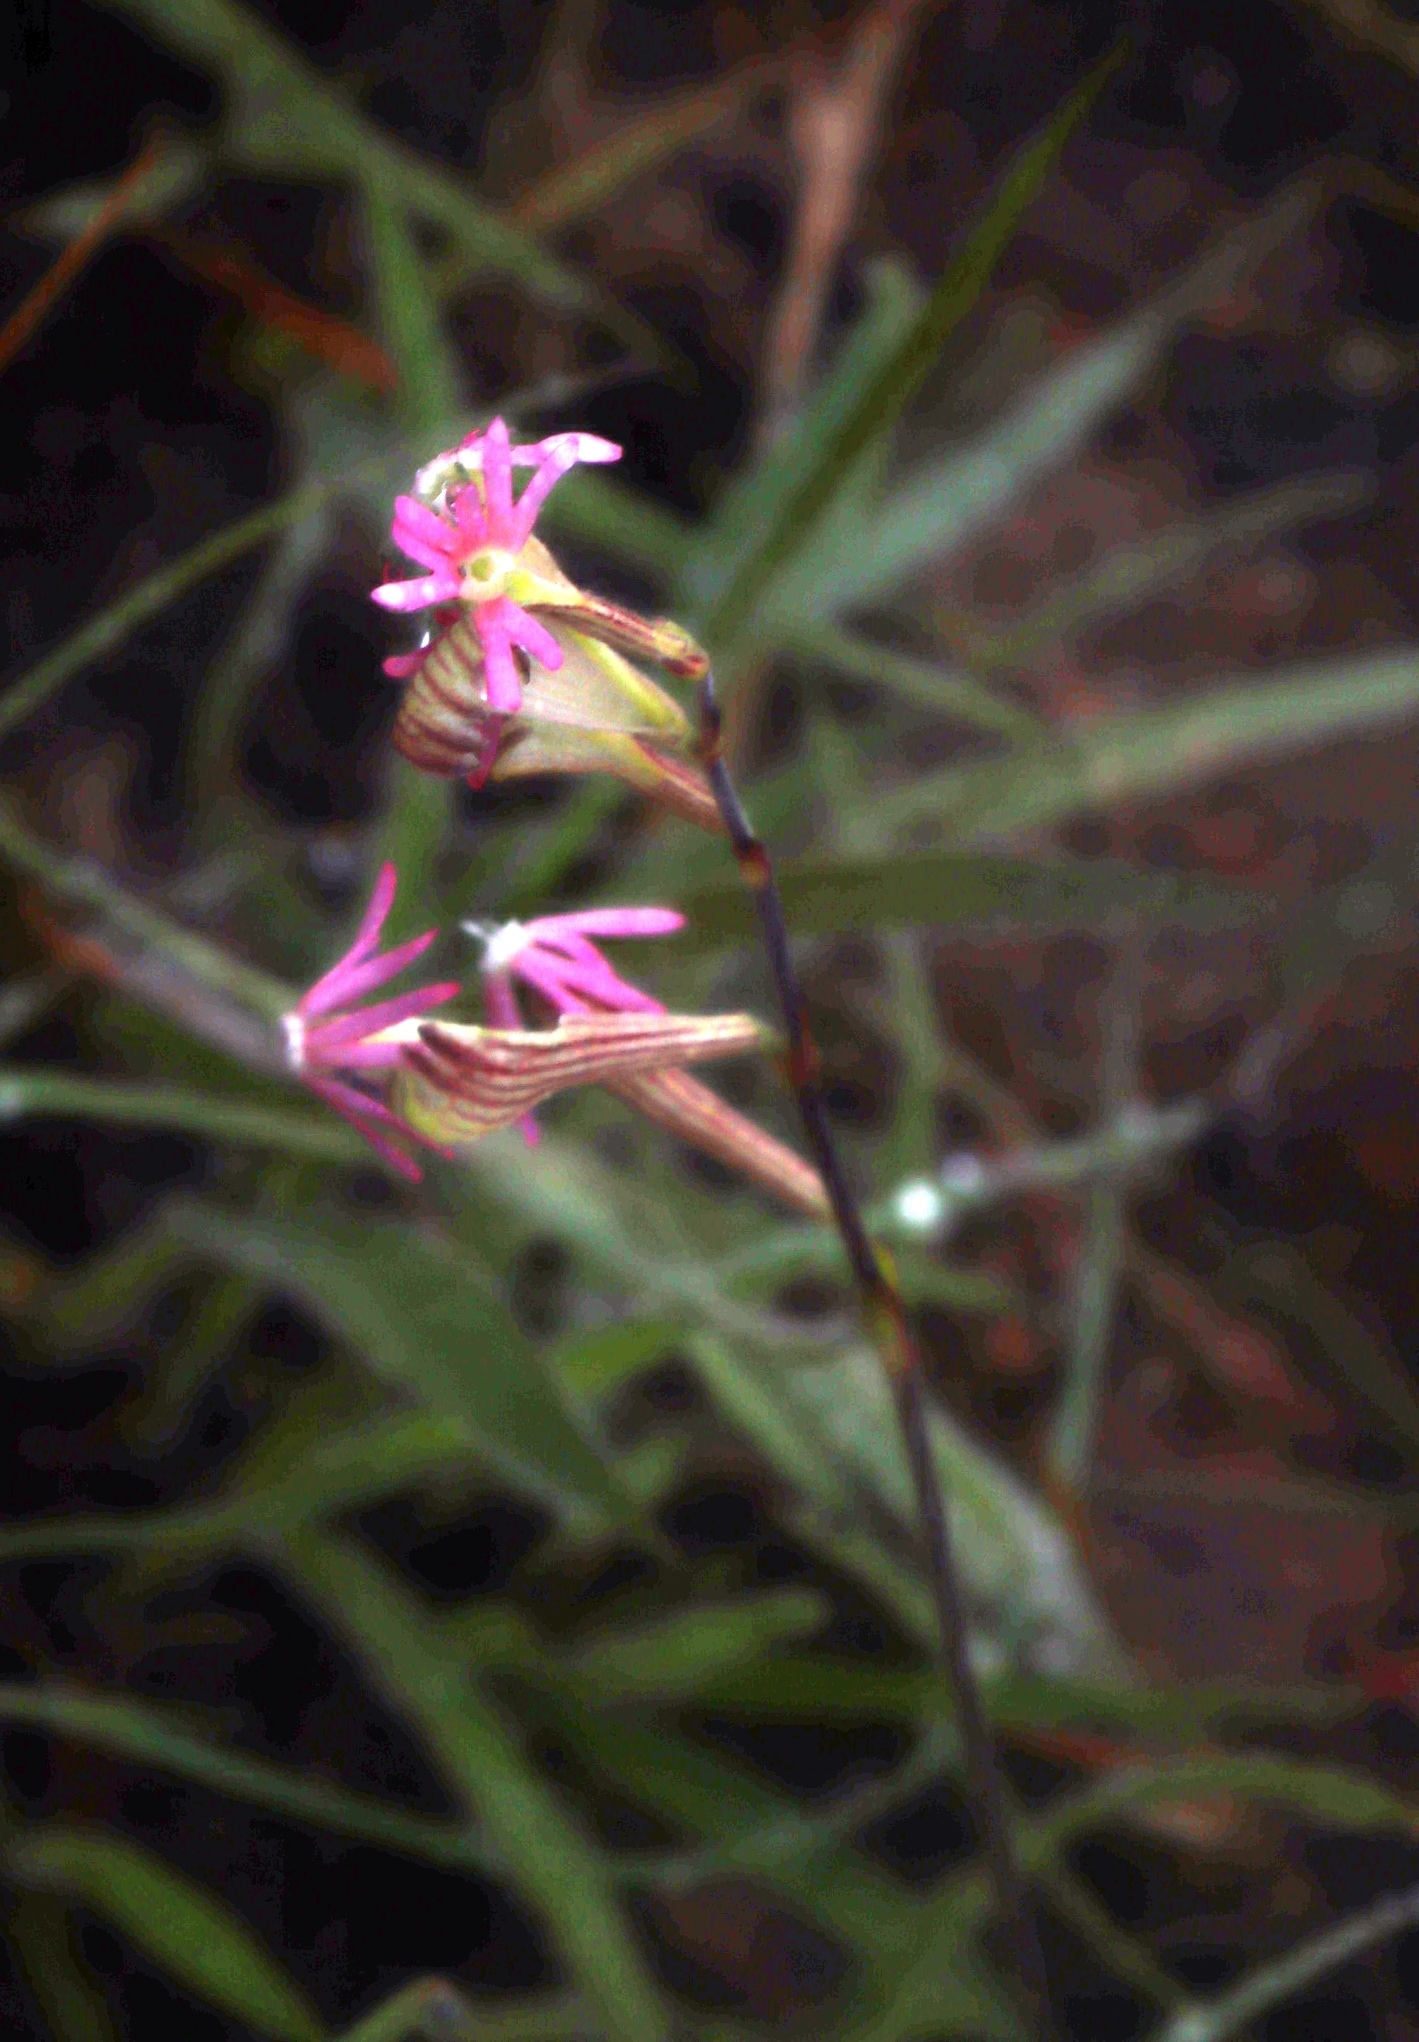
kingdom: Plantae
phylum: Tracheophyta
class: Magnoliopsida
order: Caryophyllales
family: Caryophyllaceae
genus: Silene
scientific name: Silene burchellii
